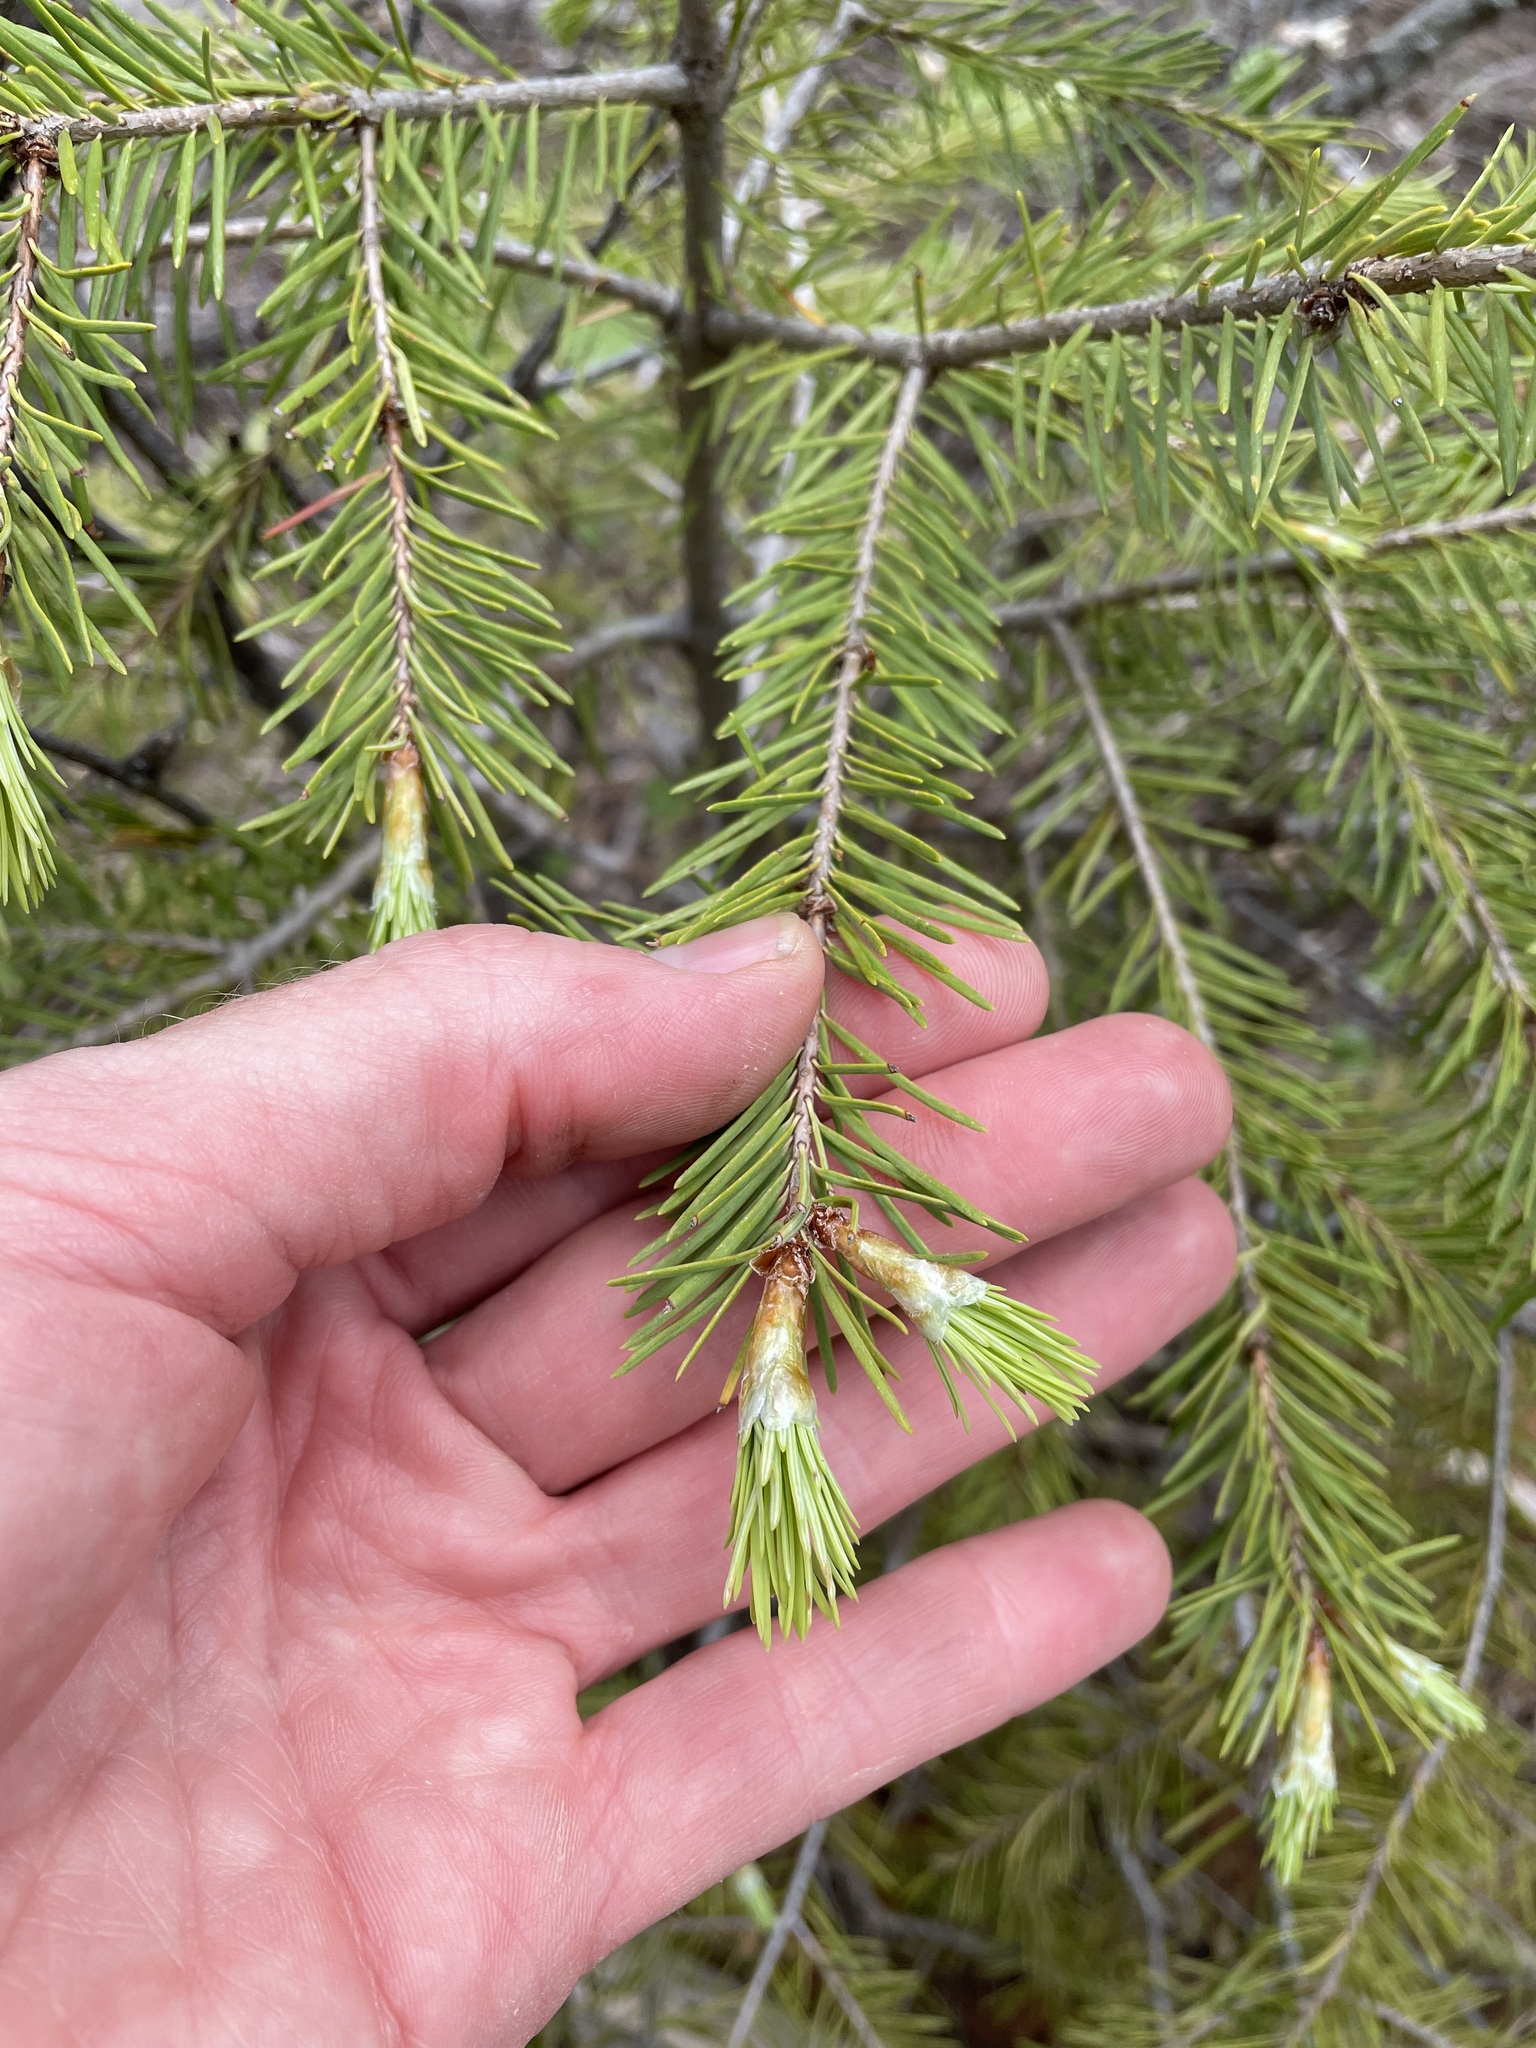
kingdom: Plantae
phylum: Tracheophyta
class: Pinopsida
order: Pinales
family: Pinaceae
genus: Pseudotsuga
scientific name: Pseudotsuga menziesii
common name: Douglas fir
